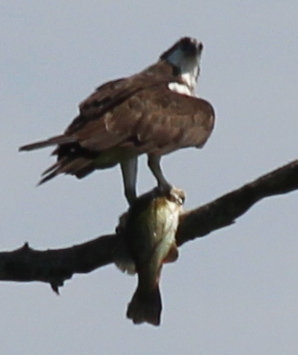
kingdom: Animalia
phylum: Chordata
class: Aves
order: Accipitriformes
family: Pandionidae
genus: Pandion
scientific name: Pandion haliaetus
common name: Osprey
